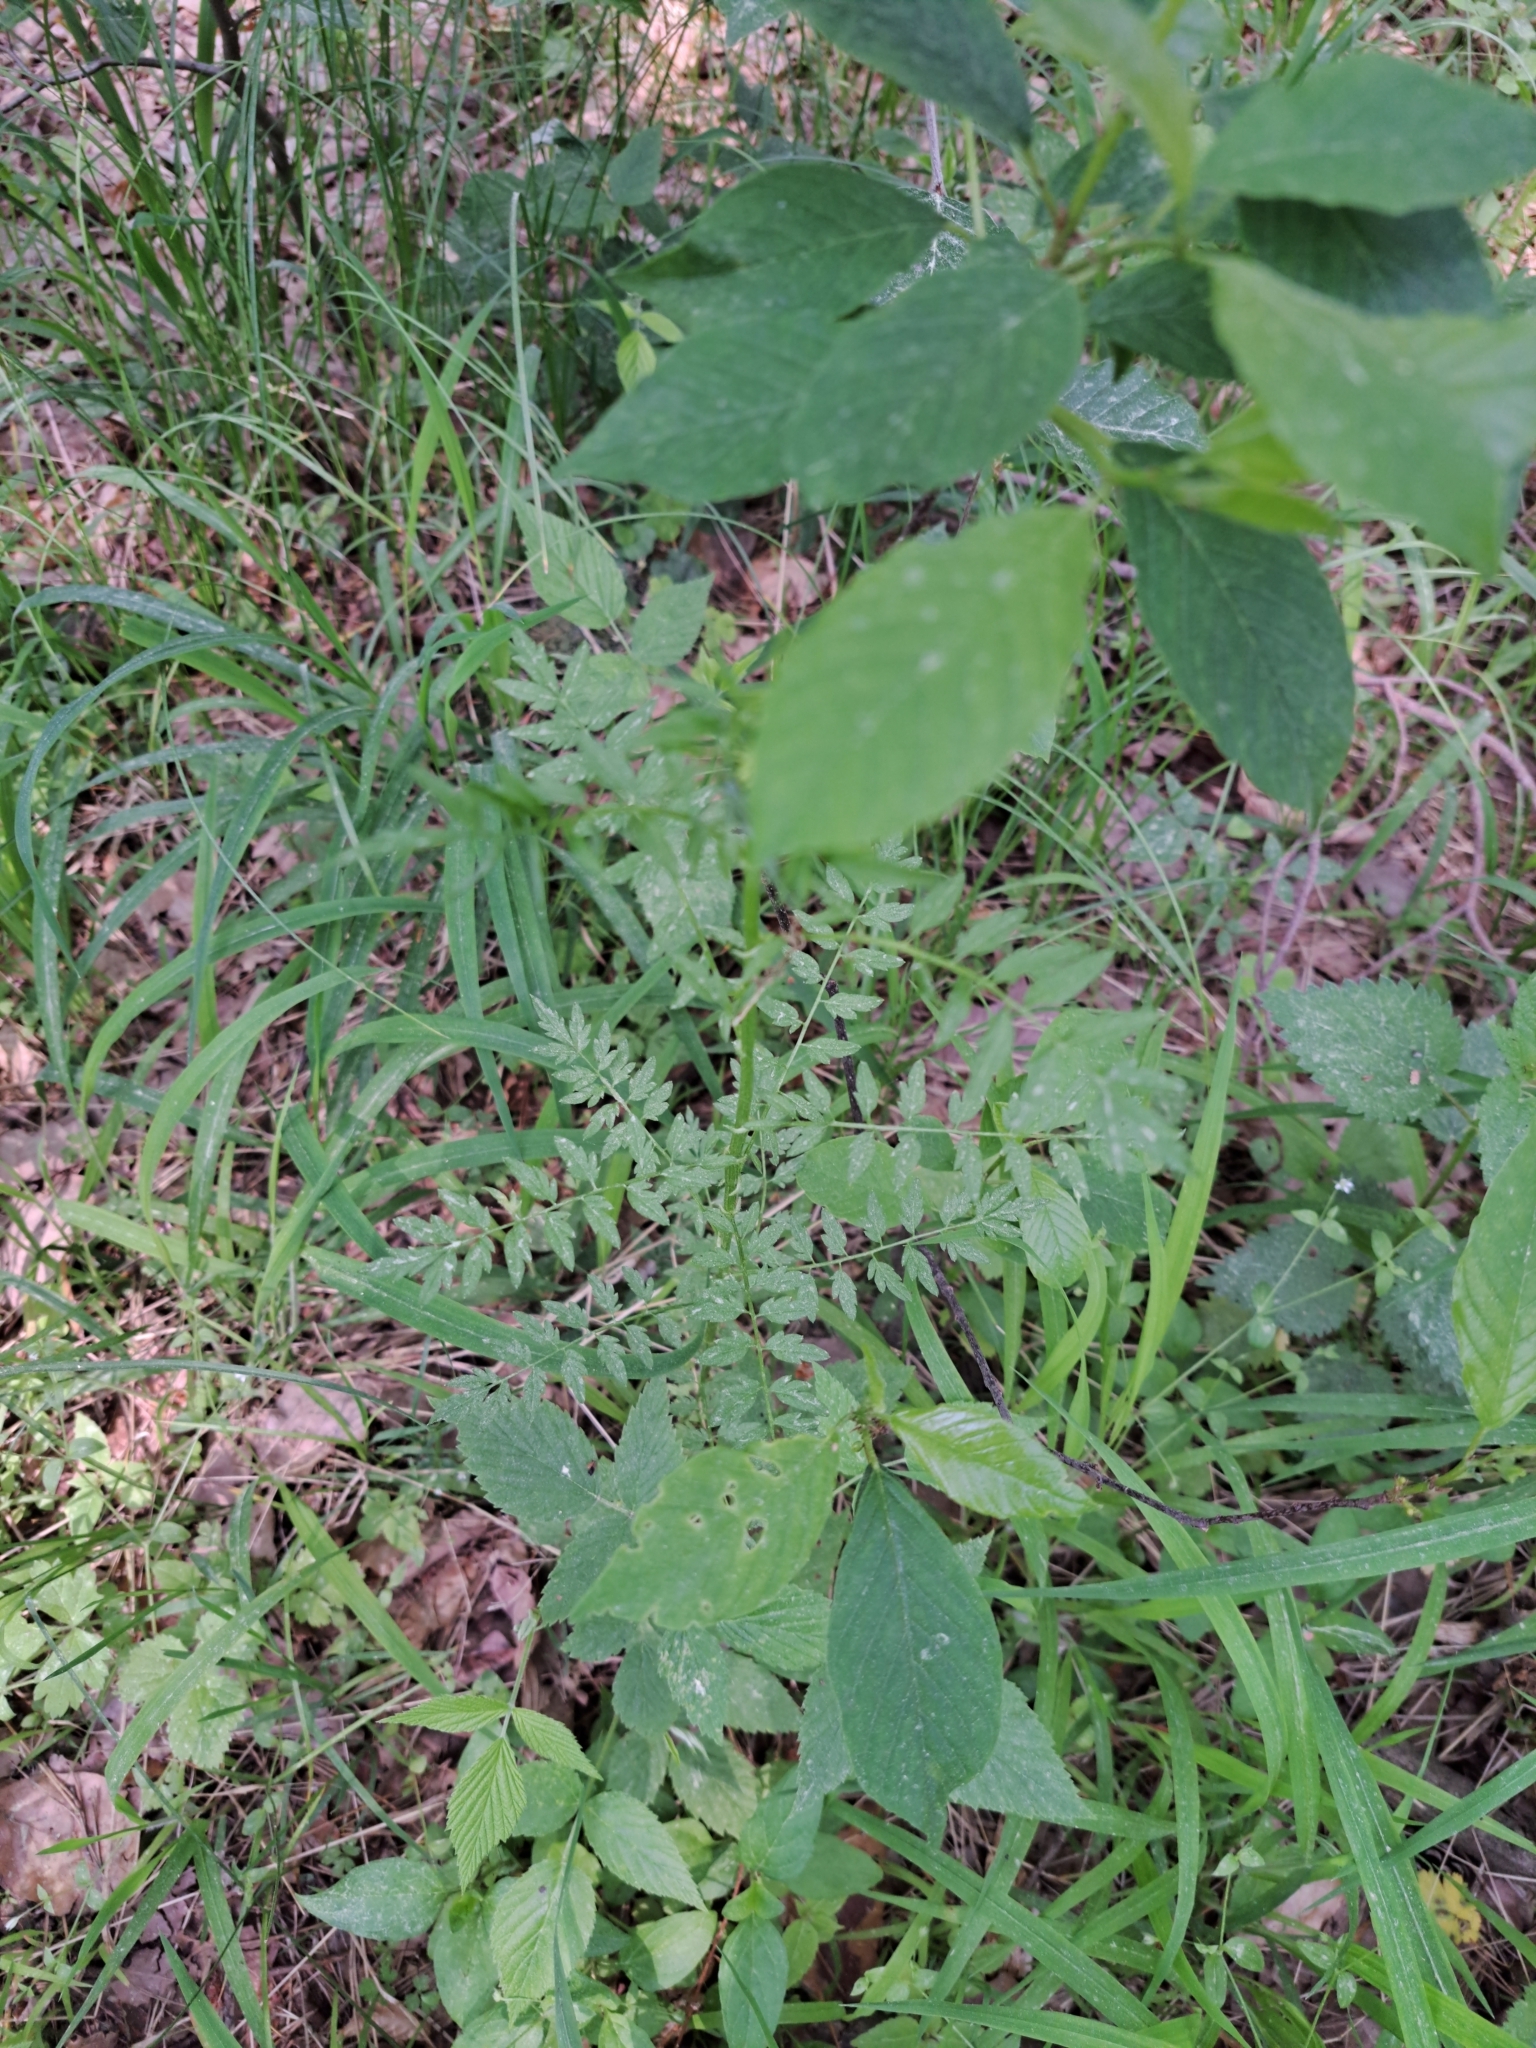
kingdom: Plantae
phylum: Tracheophyta
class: Magnoliopsida
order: Brassicales
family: Brassicaceae
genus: Cardamine
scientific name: Cardamine impatiens
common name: Narrow-leaved bitter-cress
